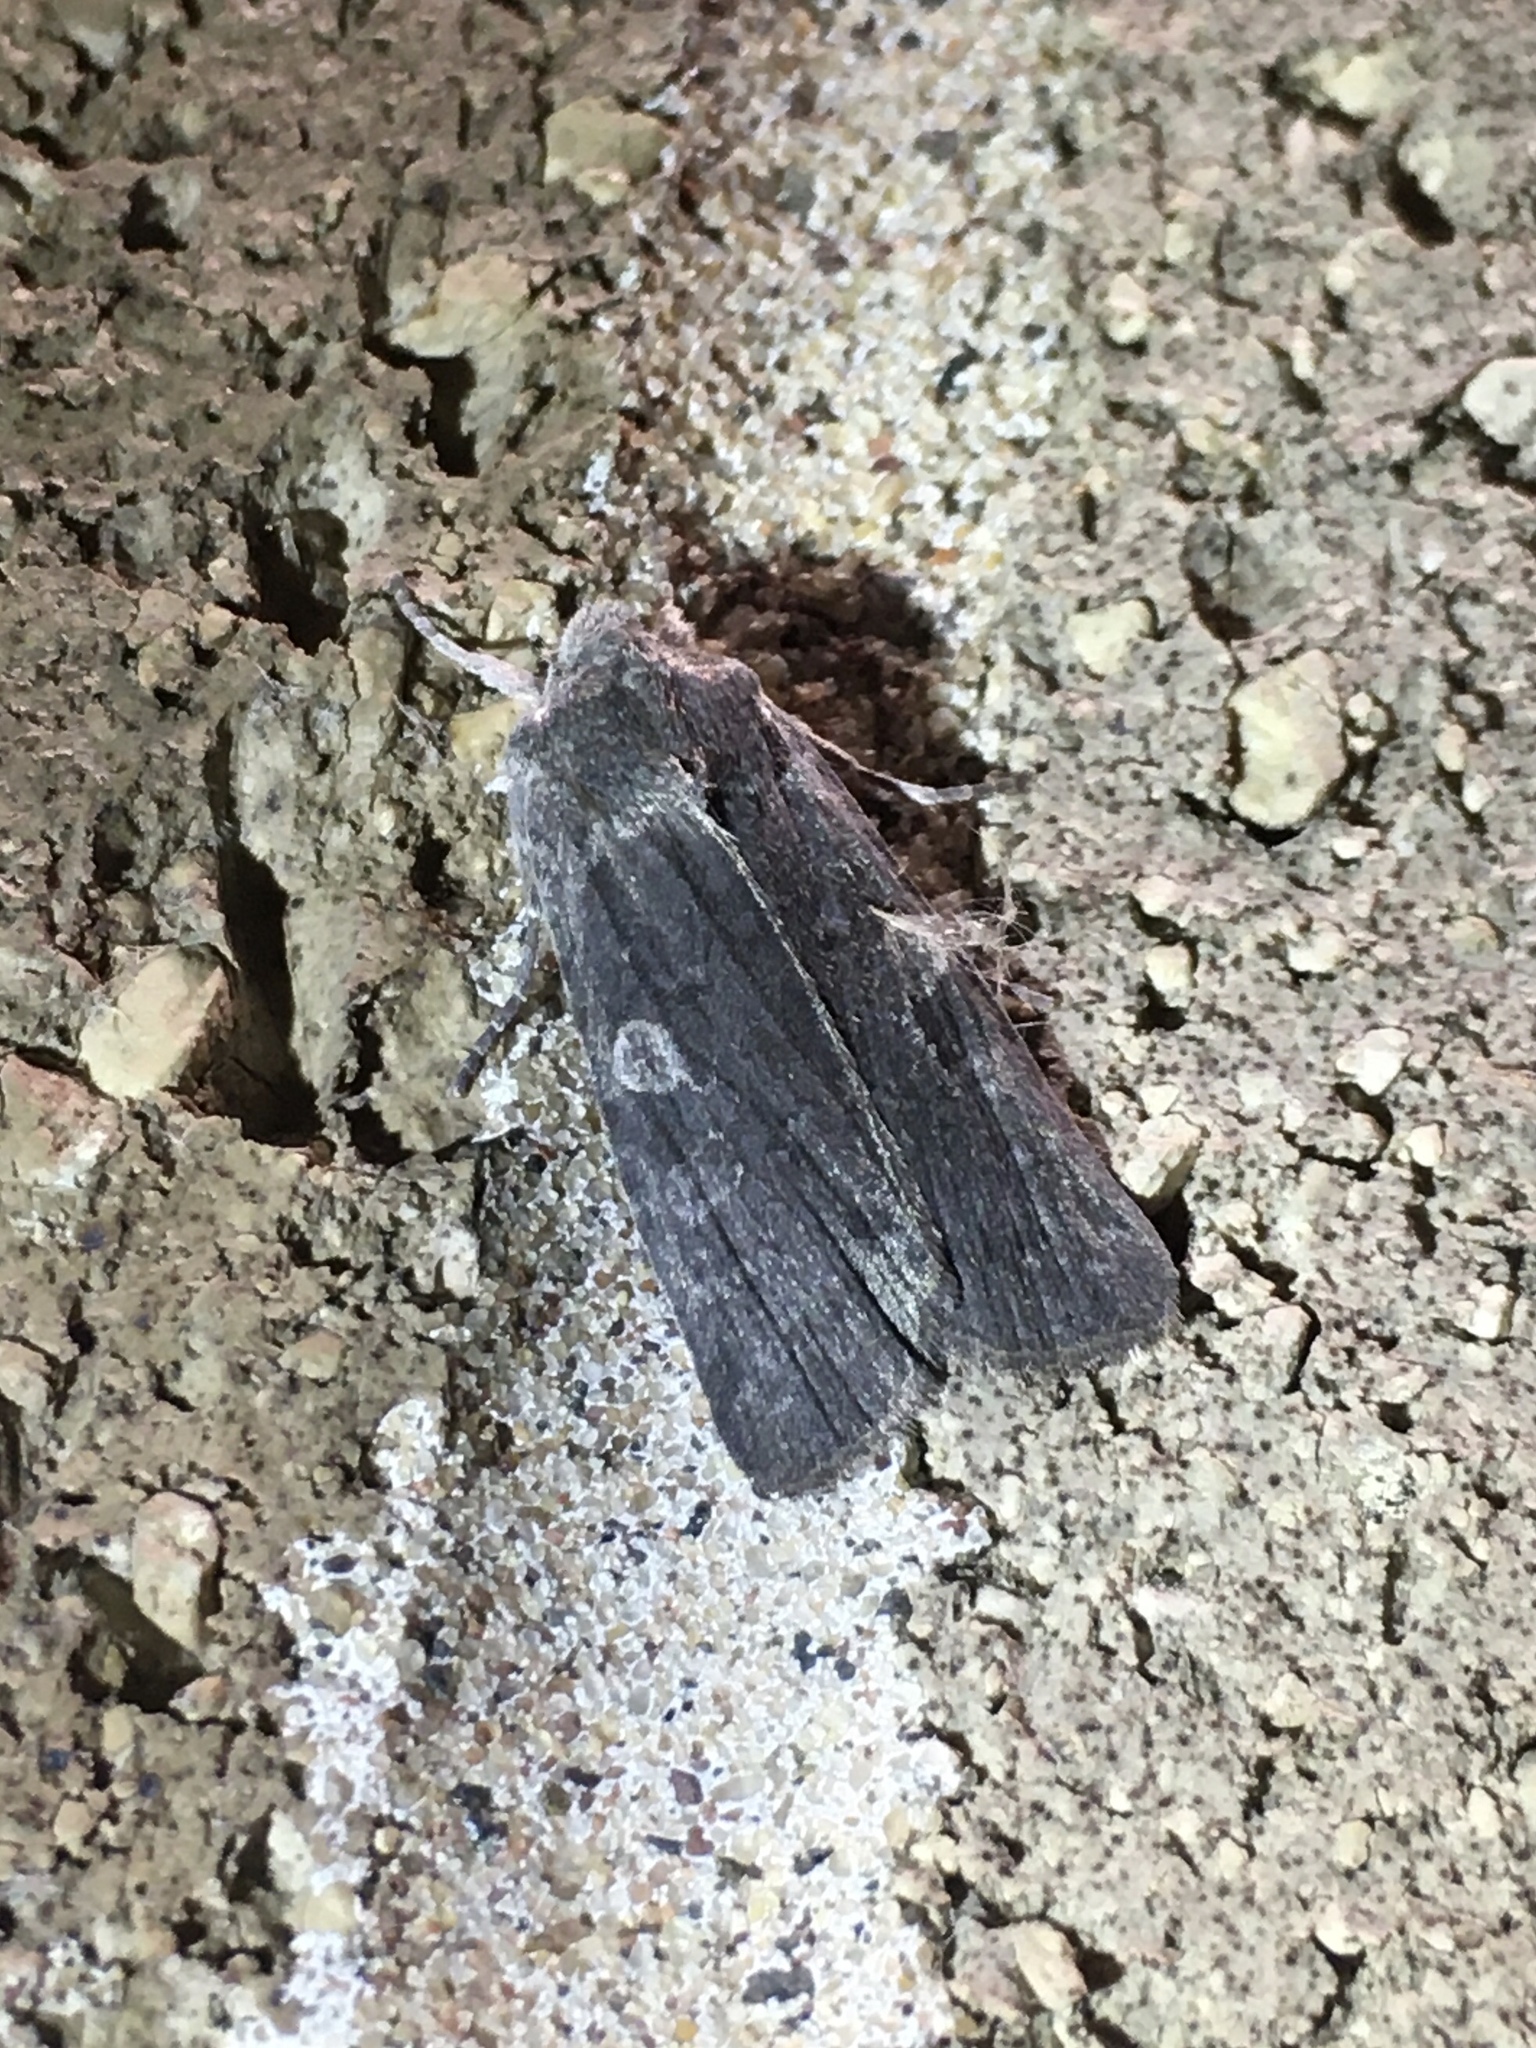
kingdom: Animalia
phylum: Arthropoda
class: Insecta
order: Lepidoptera
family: Noctuidae
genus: Lithophane
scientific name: Lithophane unimoda
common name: Dowdy pinion
